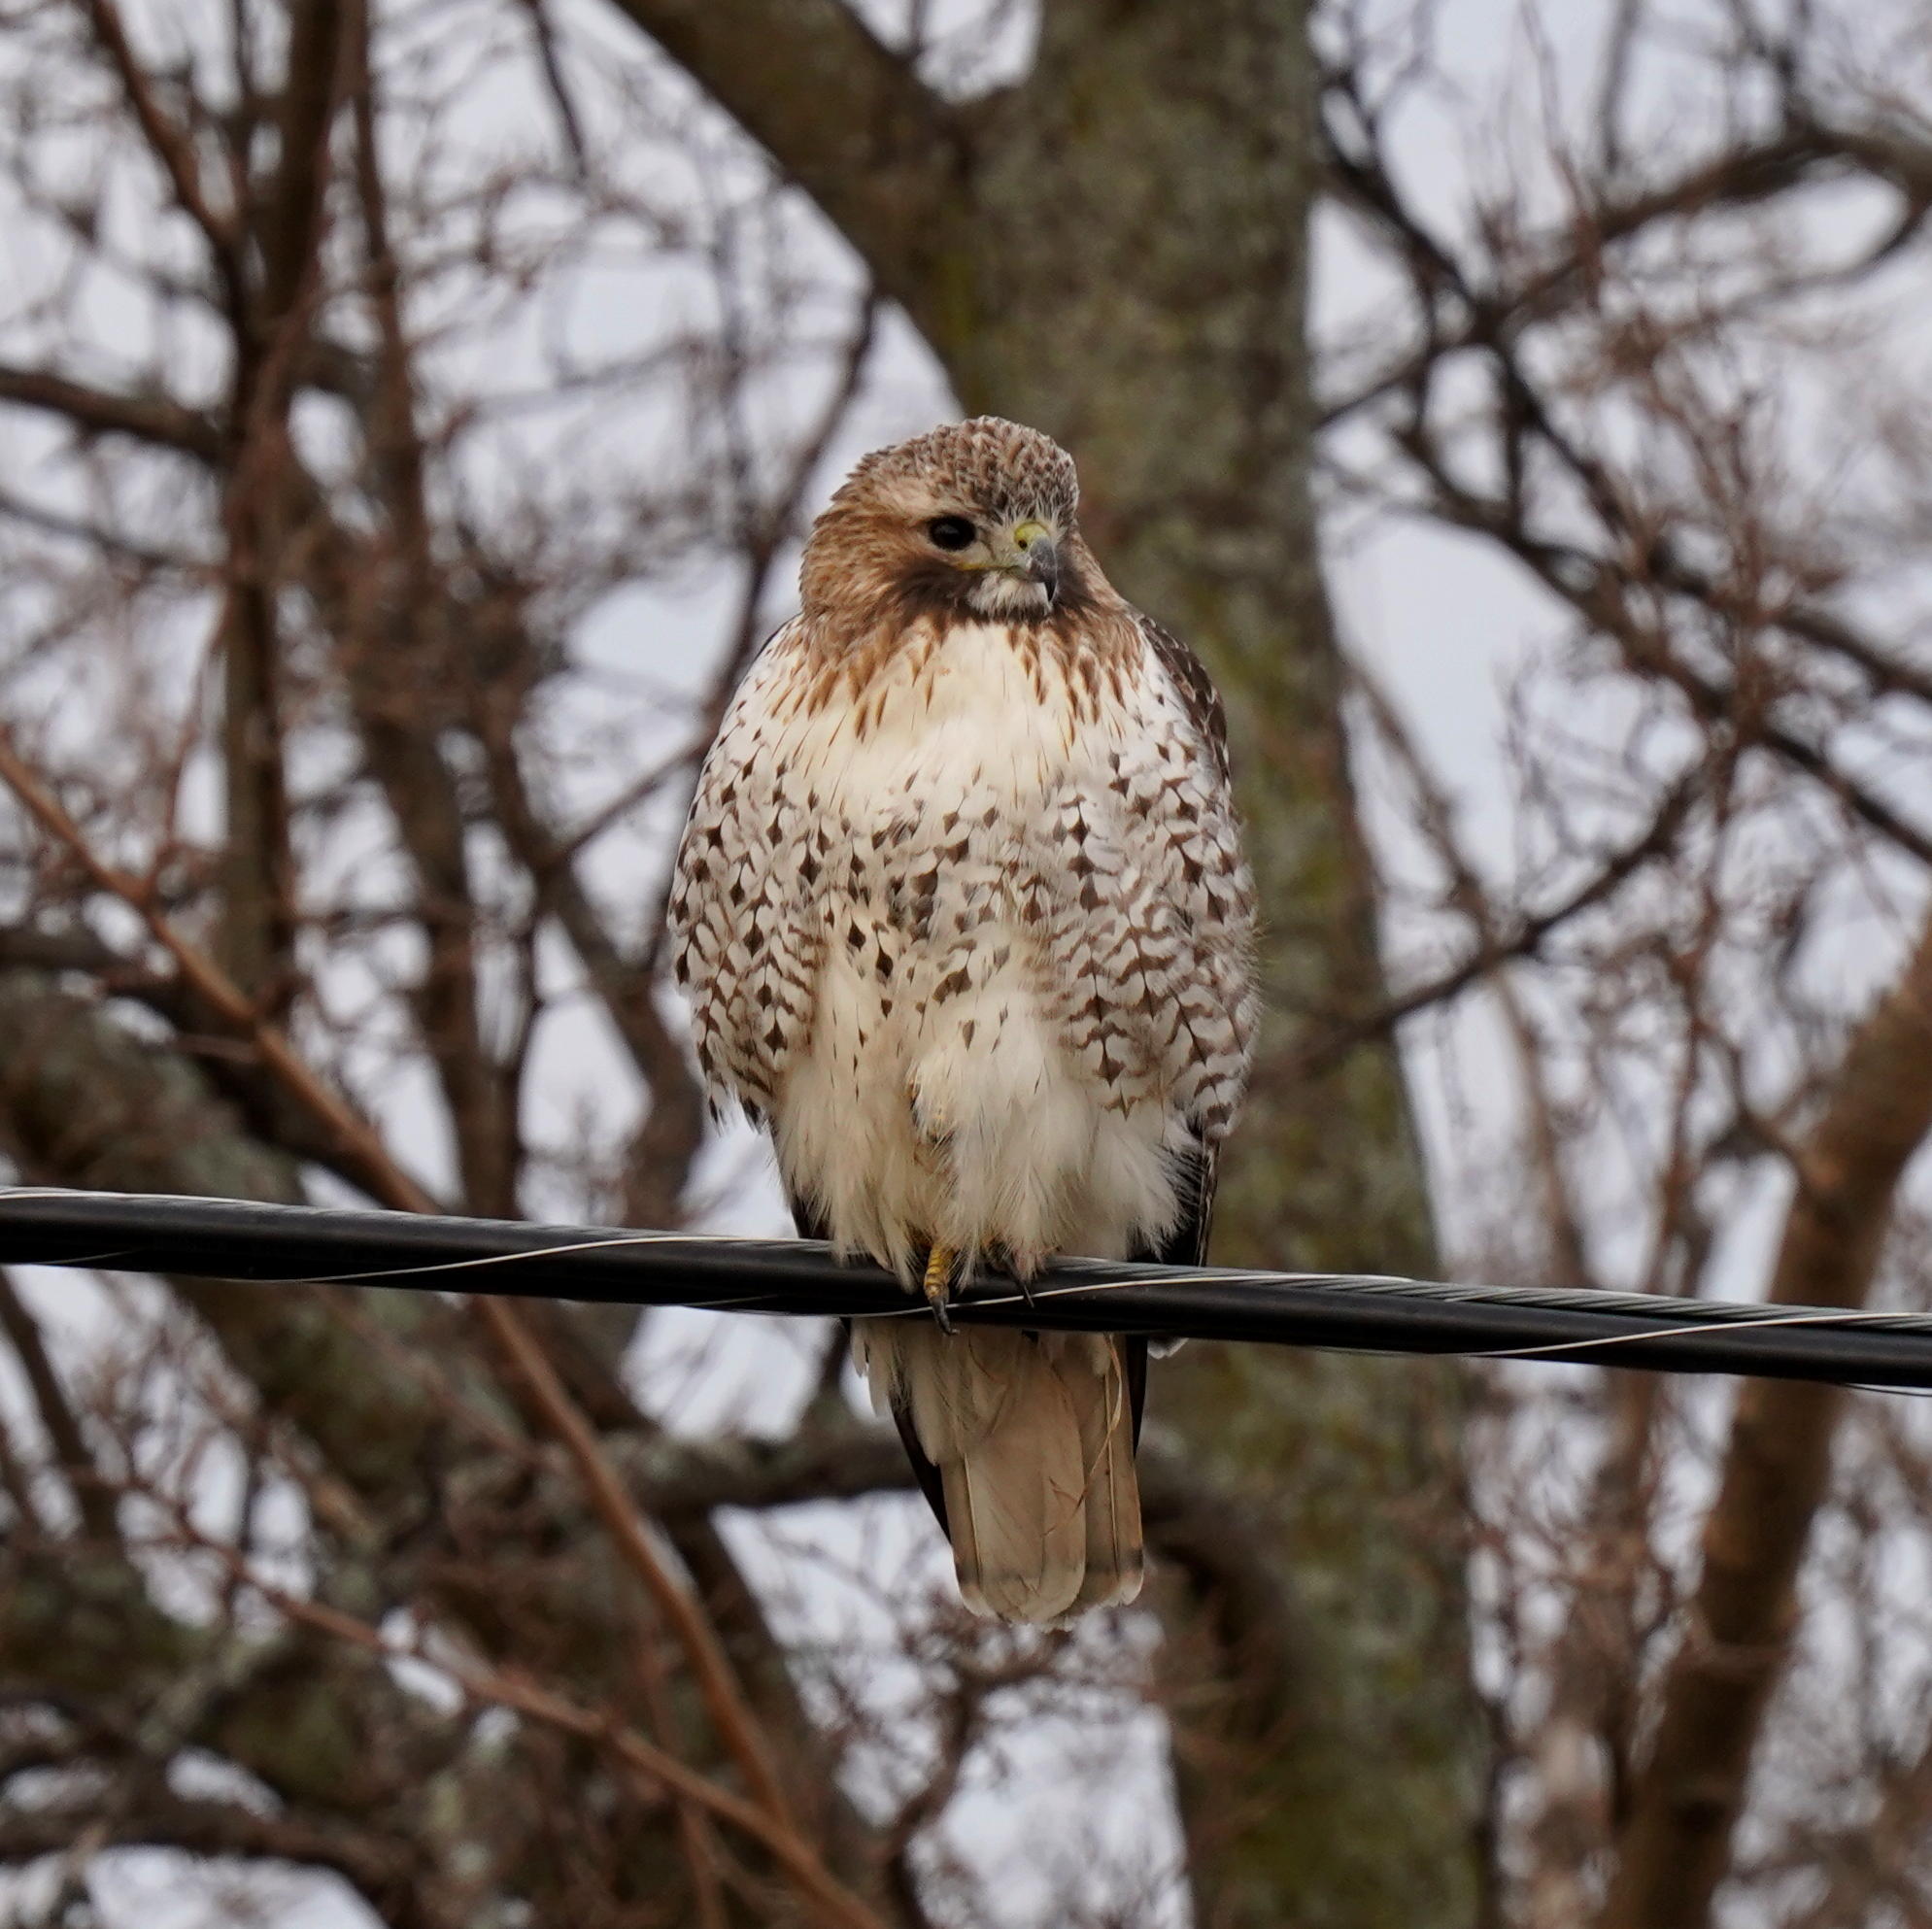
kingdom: Animalia
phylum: Chordata
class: Aves
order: Accipitriformes
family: Accipitridae
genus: Buteo
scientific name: Buteo jamaicensis
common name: Red-tailed hawk
